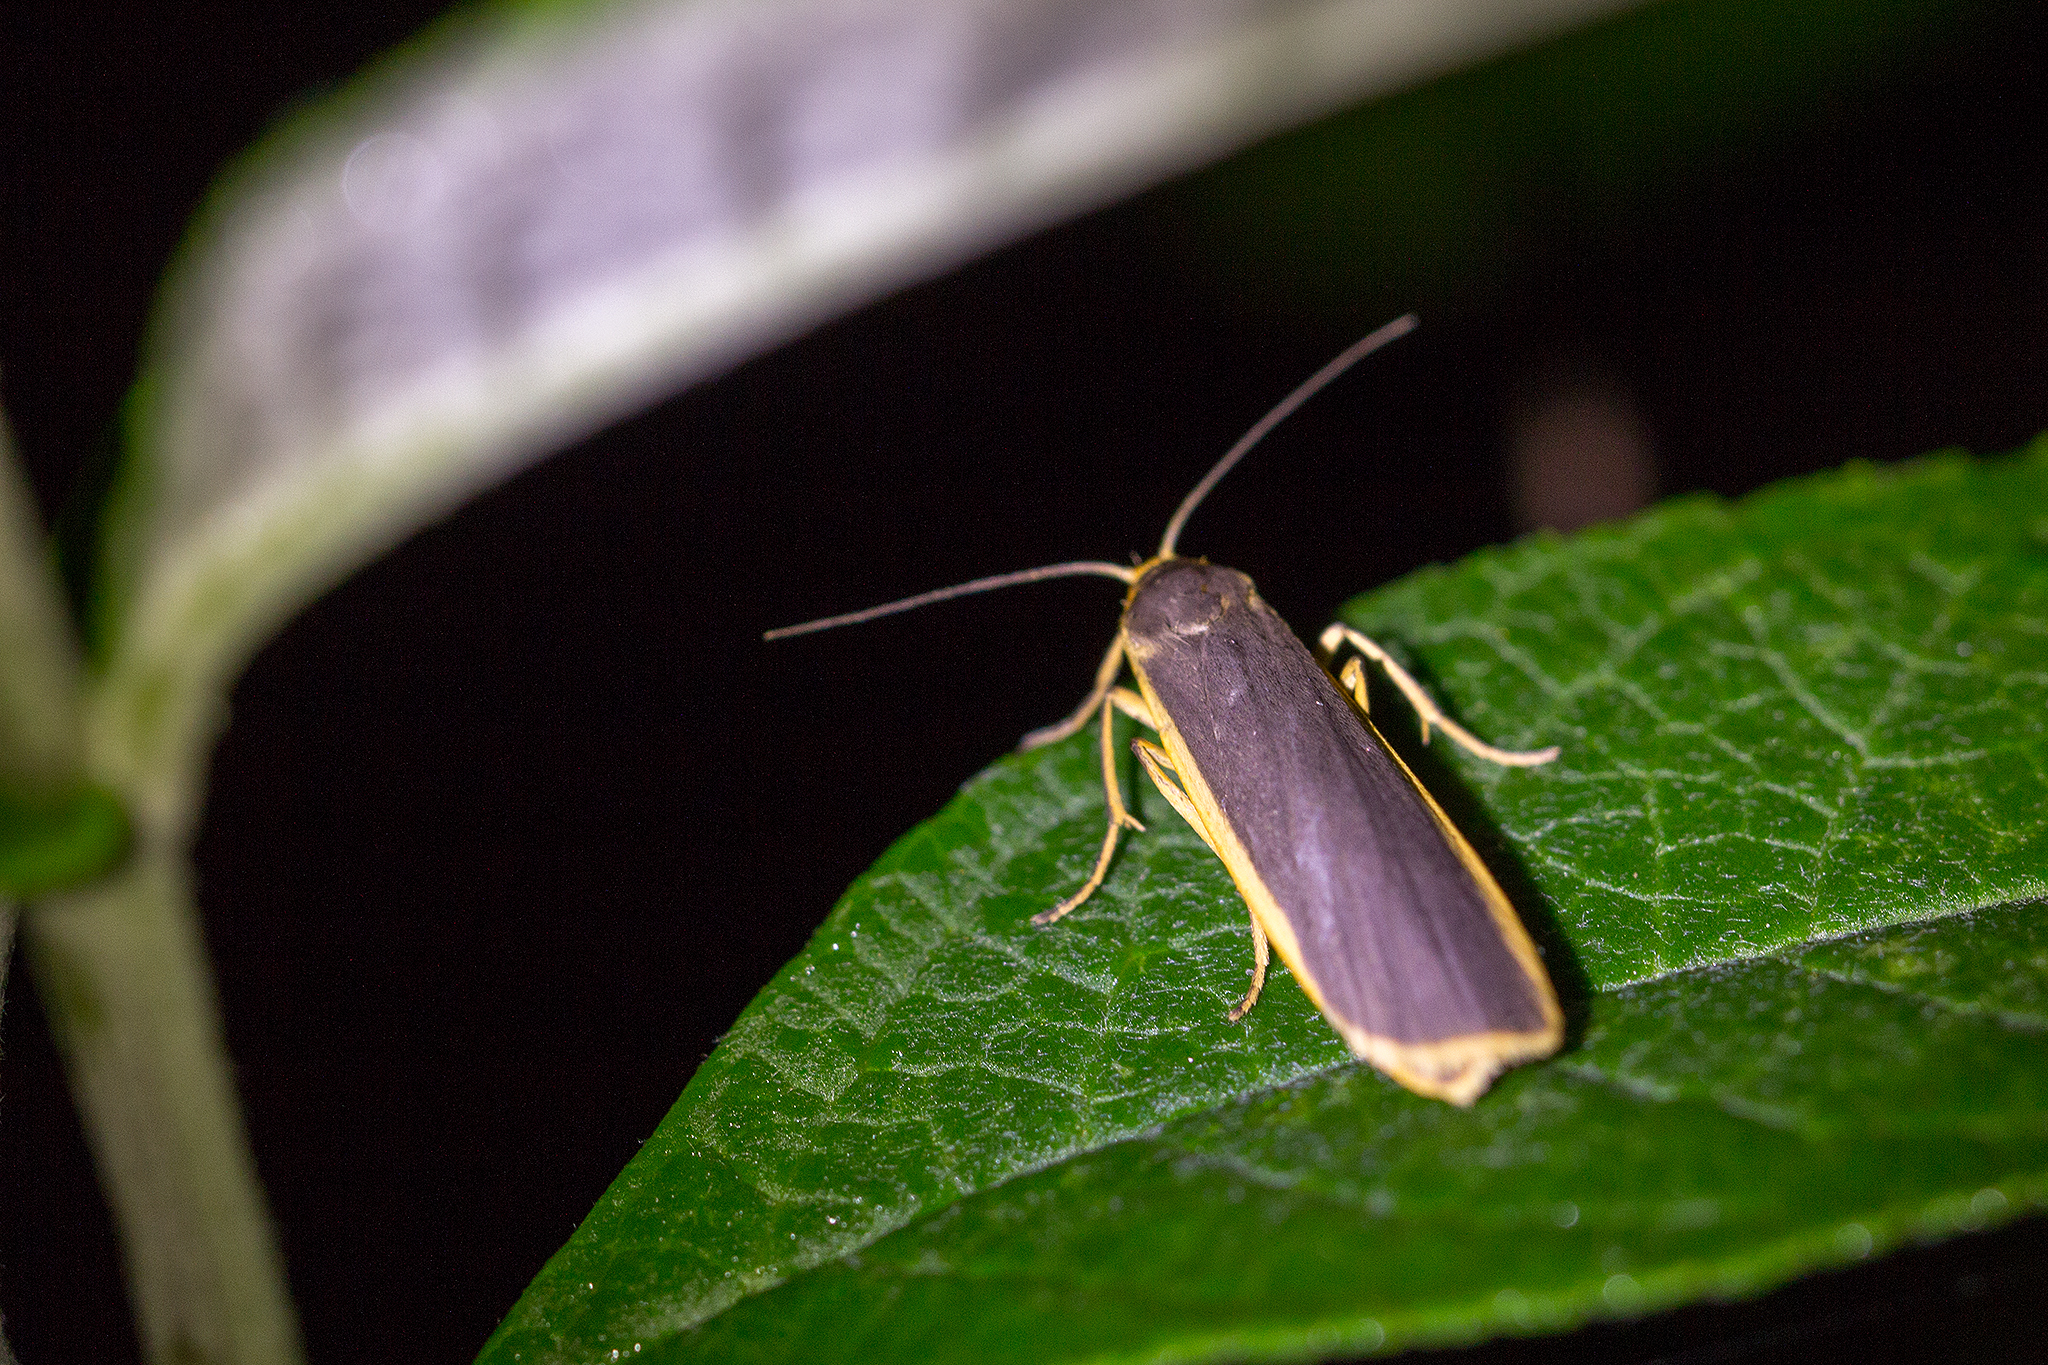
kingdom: Animalia
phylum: Arthropoda
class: Insecta
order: Lepidoptera
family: Erebidae
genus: Nyea
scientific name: Nyea lurideola
